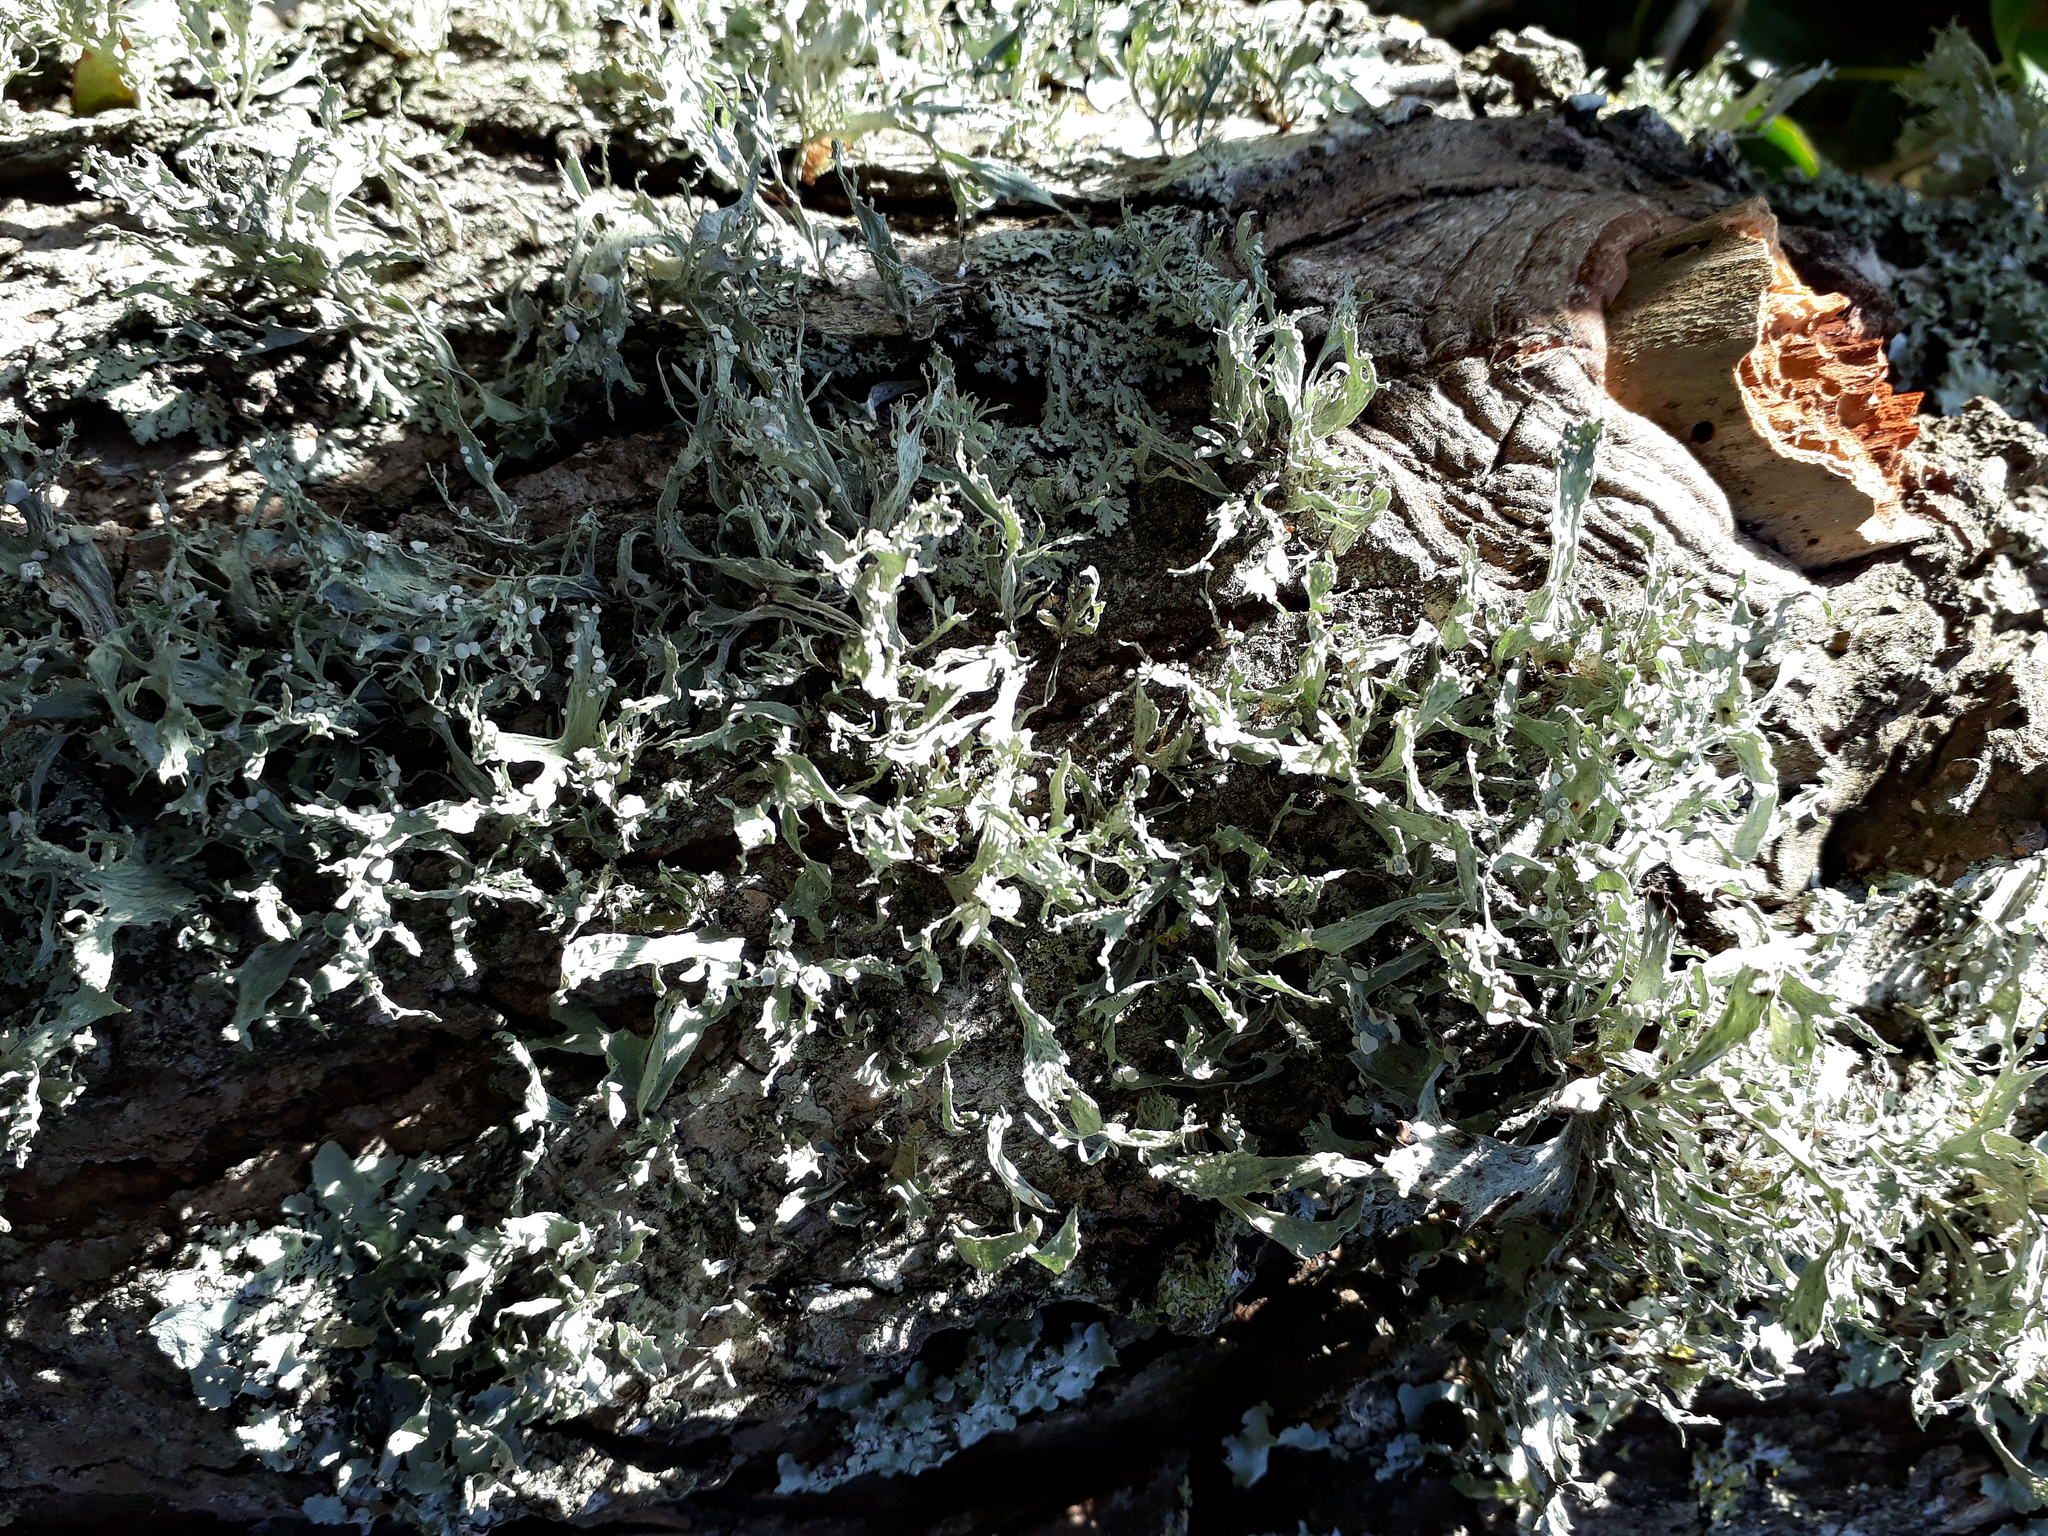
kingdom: Fungi
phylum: Ascomycota
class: Lecanoromycetes
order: Lecanorales
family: Ramalinaceae
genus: Ramalina
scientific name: Ramalina celastri
